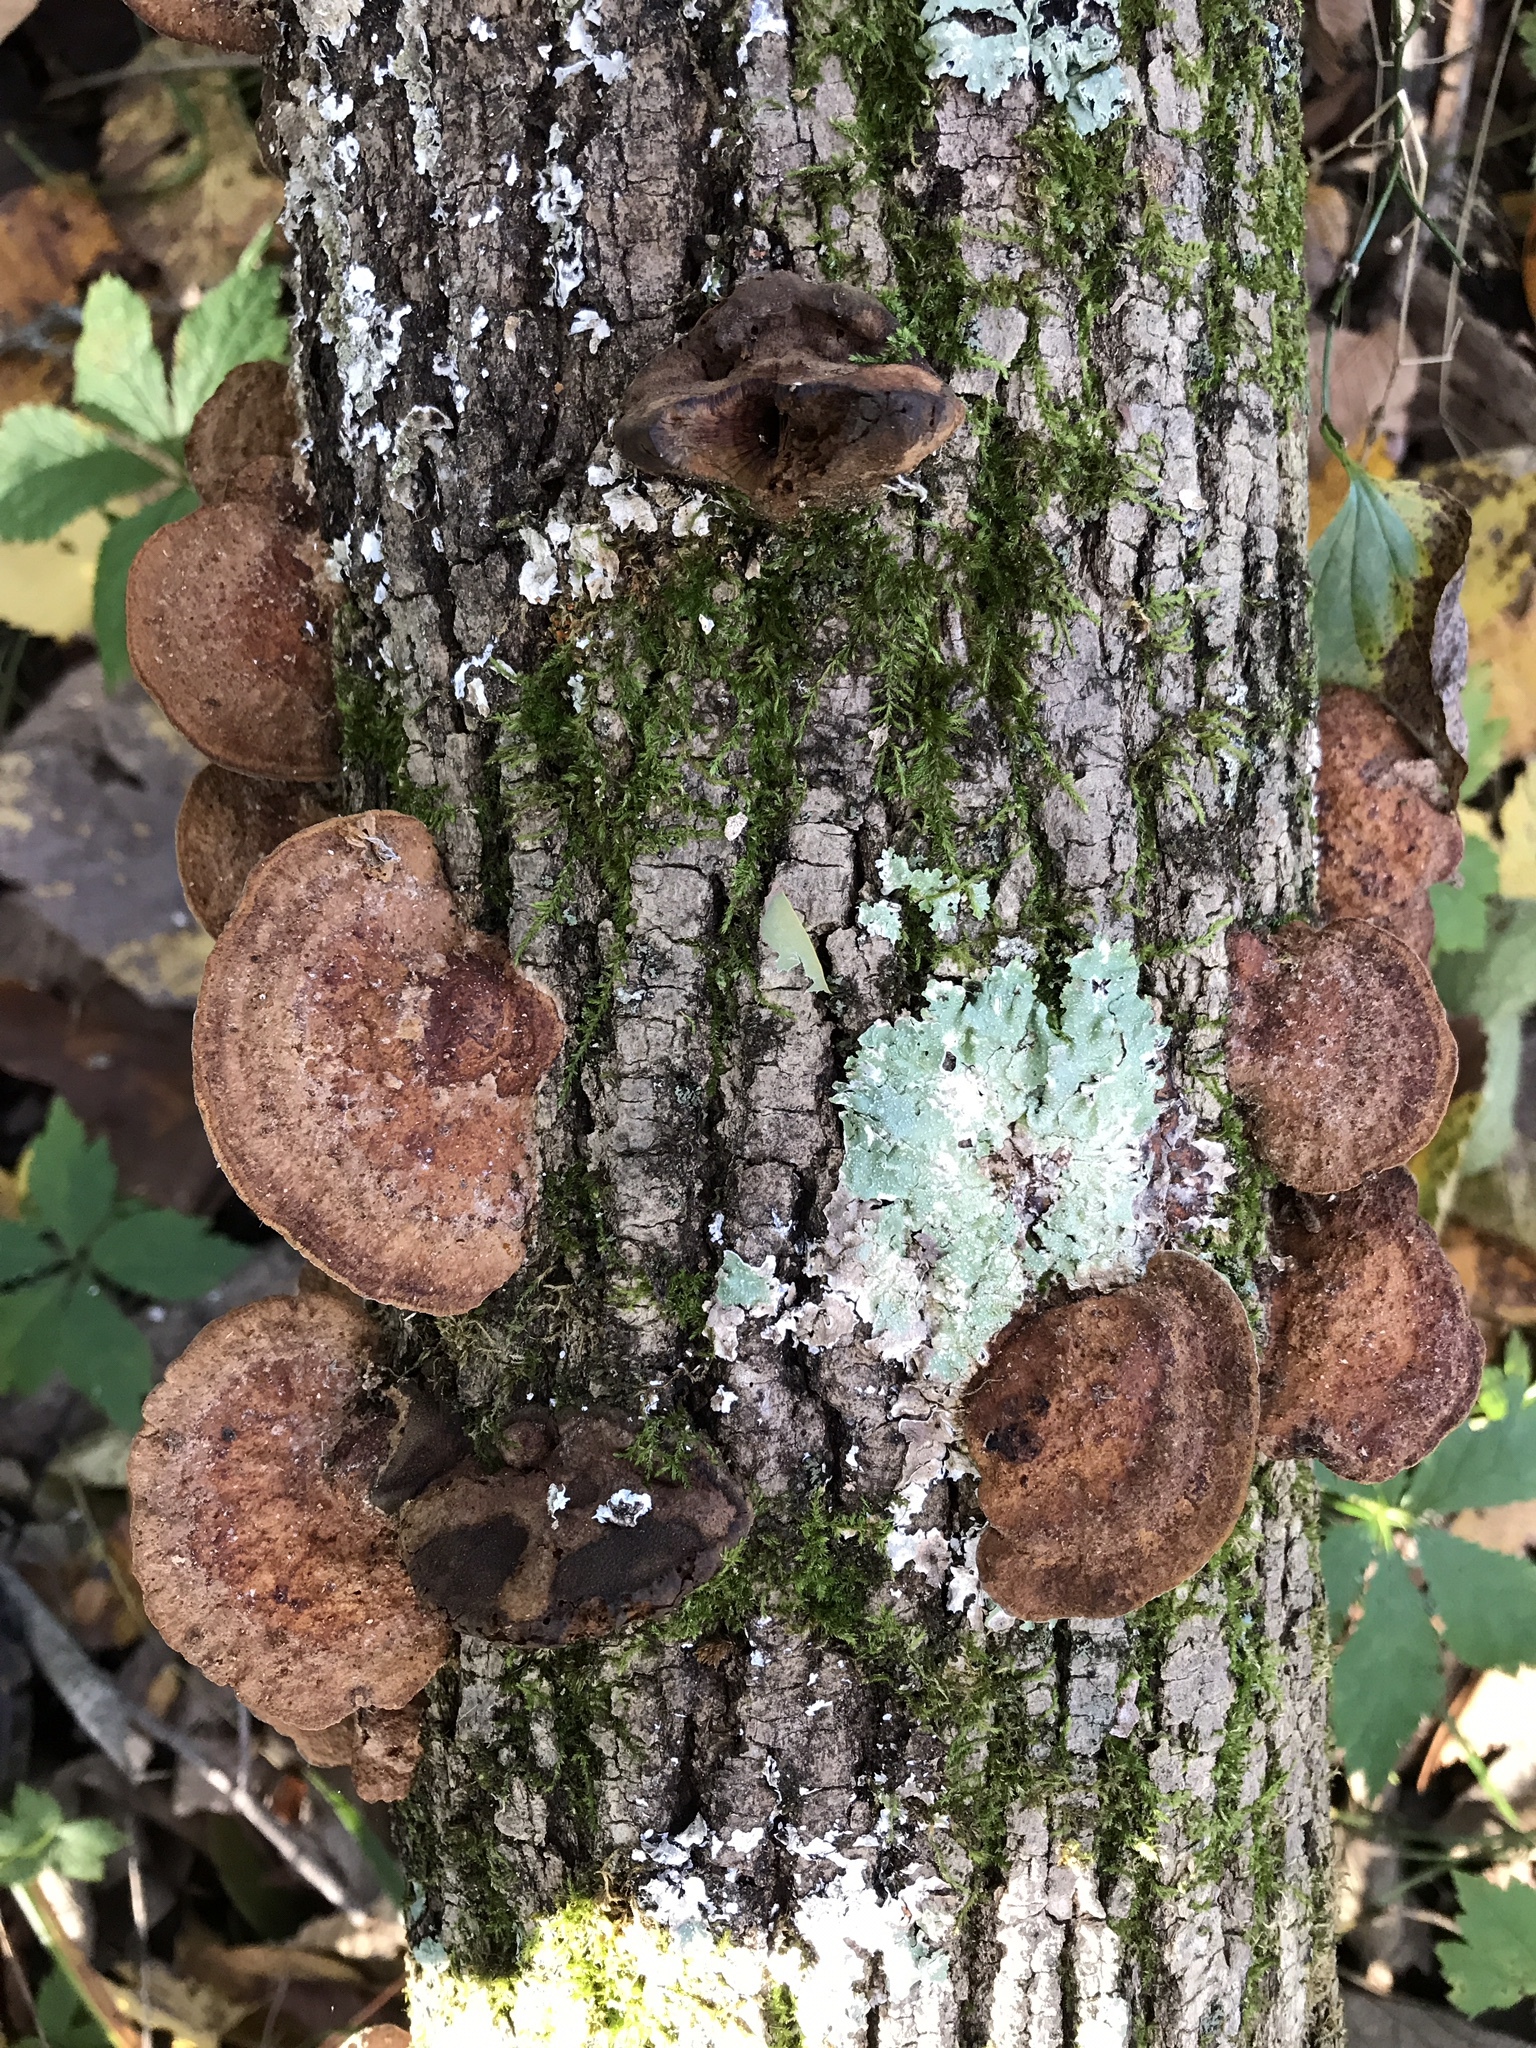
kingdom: Fungi
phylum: Basidiomycota
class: Agaricomycetes
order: Hymenochaetales
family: Hymenochaetaceae
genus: Phellinus
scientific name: Phellinus gilvus
